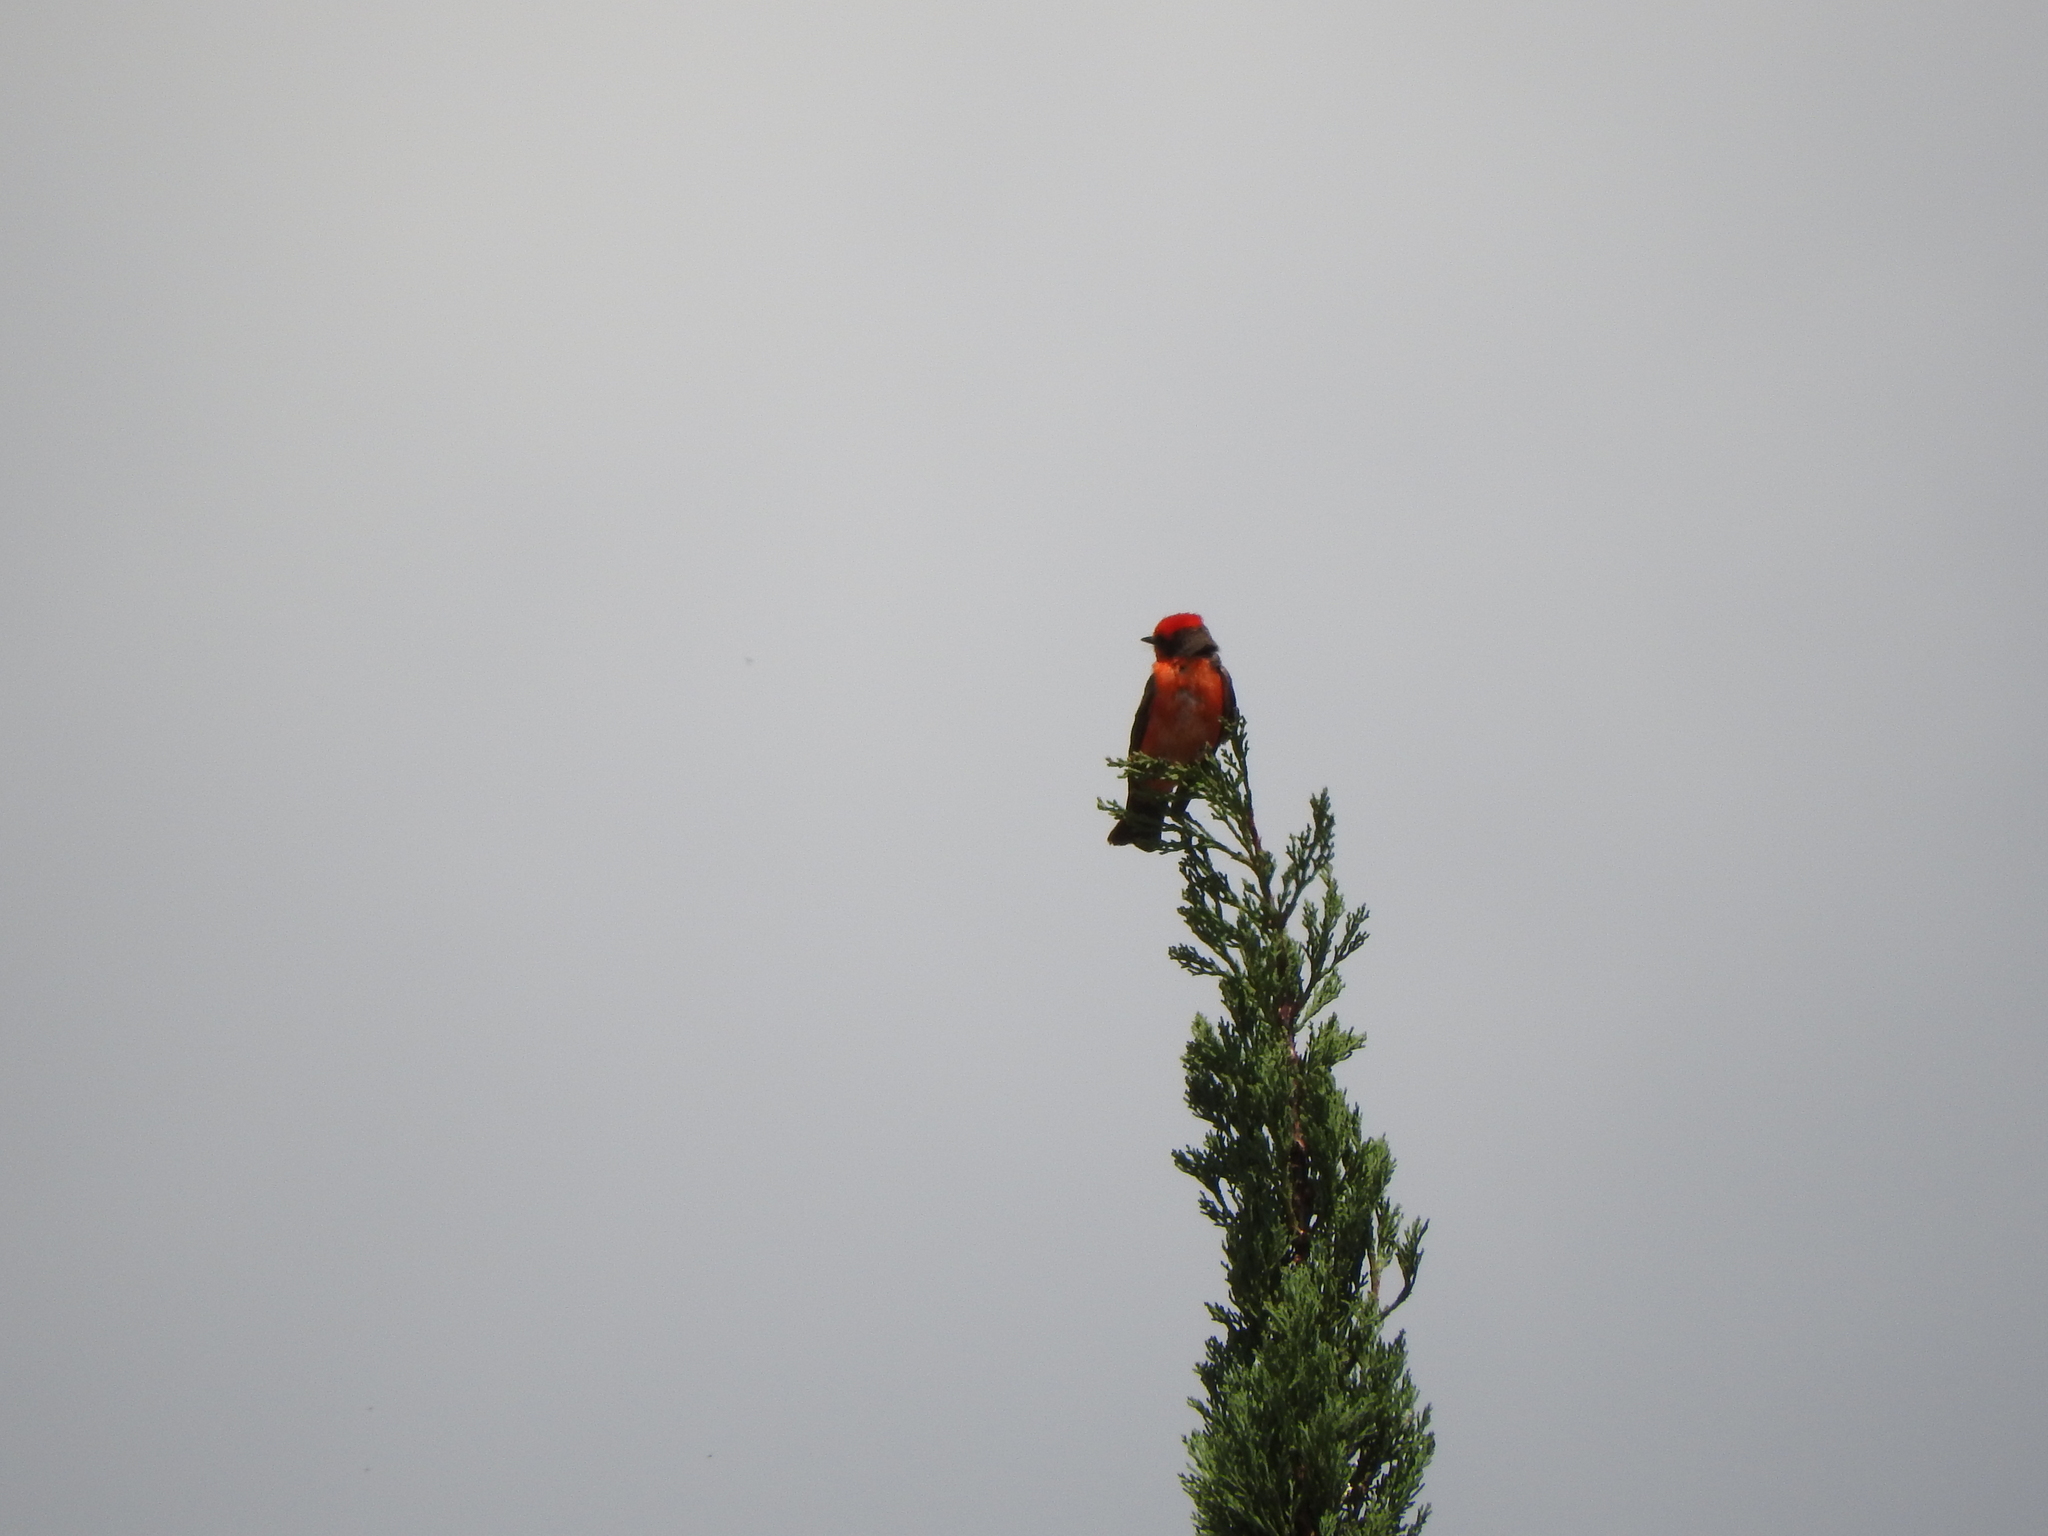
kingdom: Animalia
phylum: Chordata
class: Aves
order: Passeriformes
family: Tyrannidae
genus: Pyrocephalus
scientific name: Pyrocephalus rubinus
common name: Vermilion flycatcher
